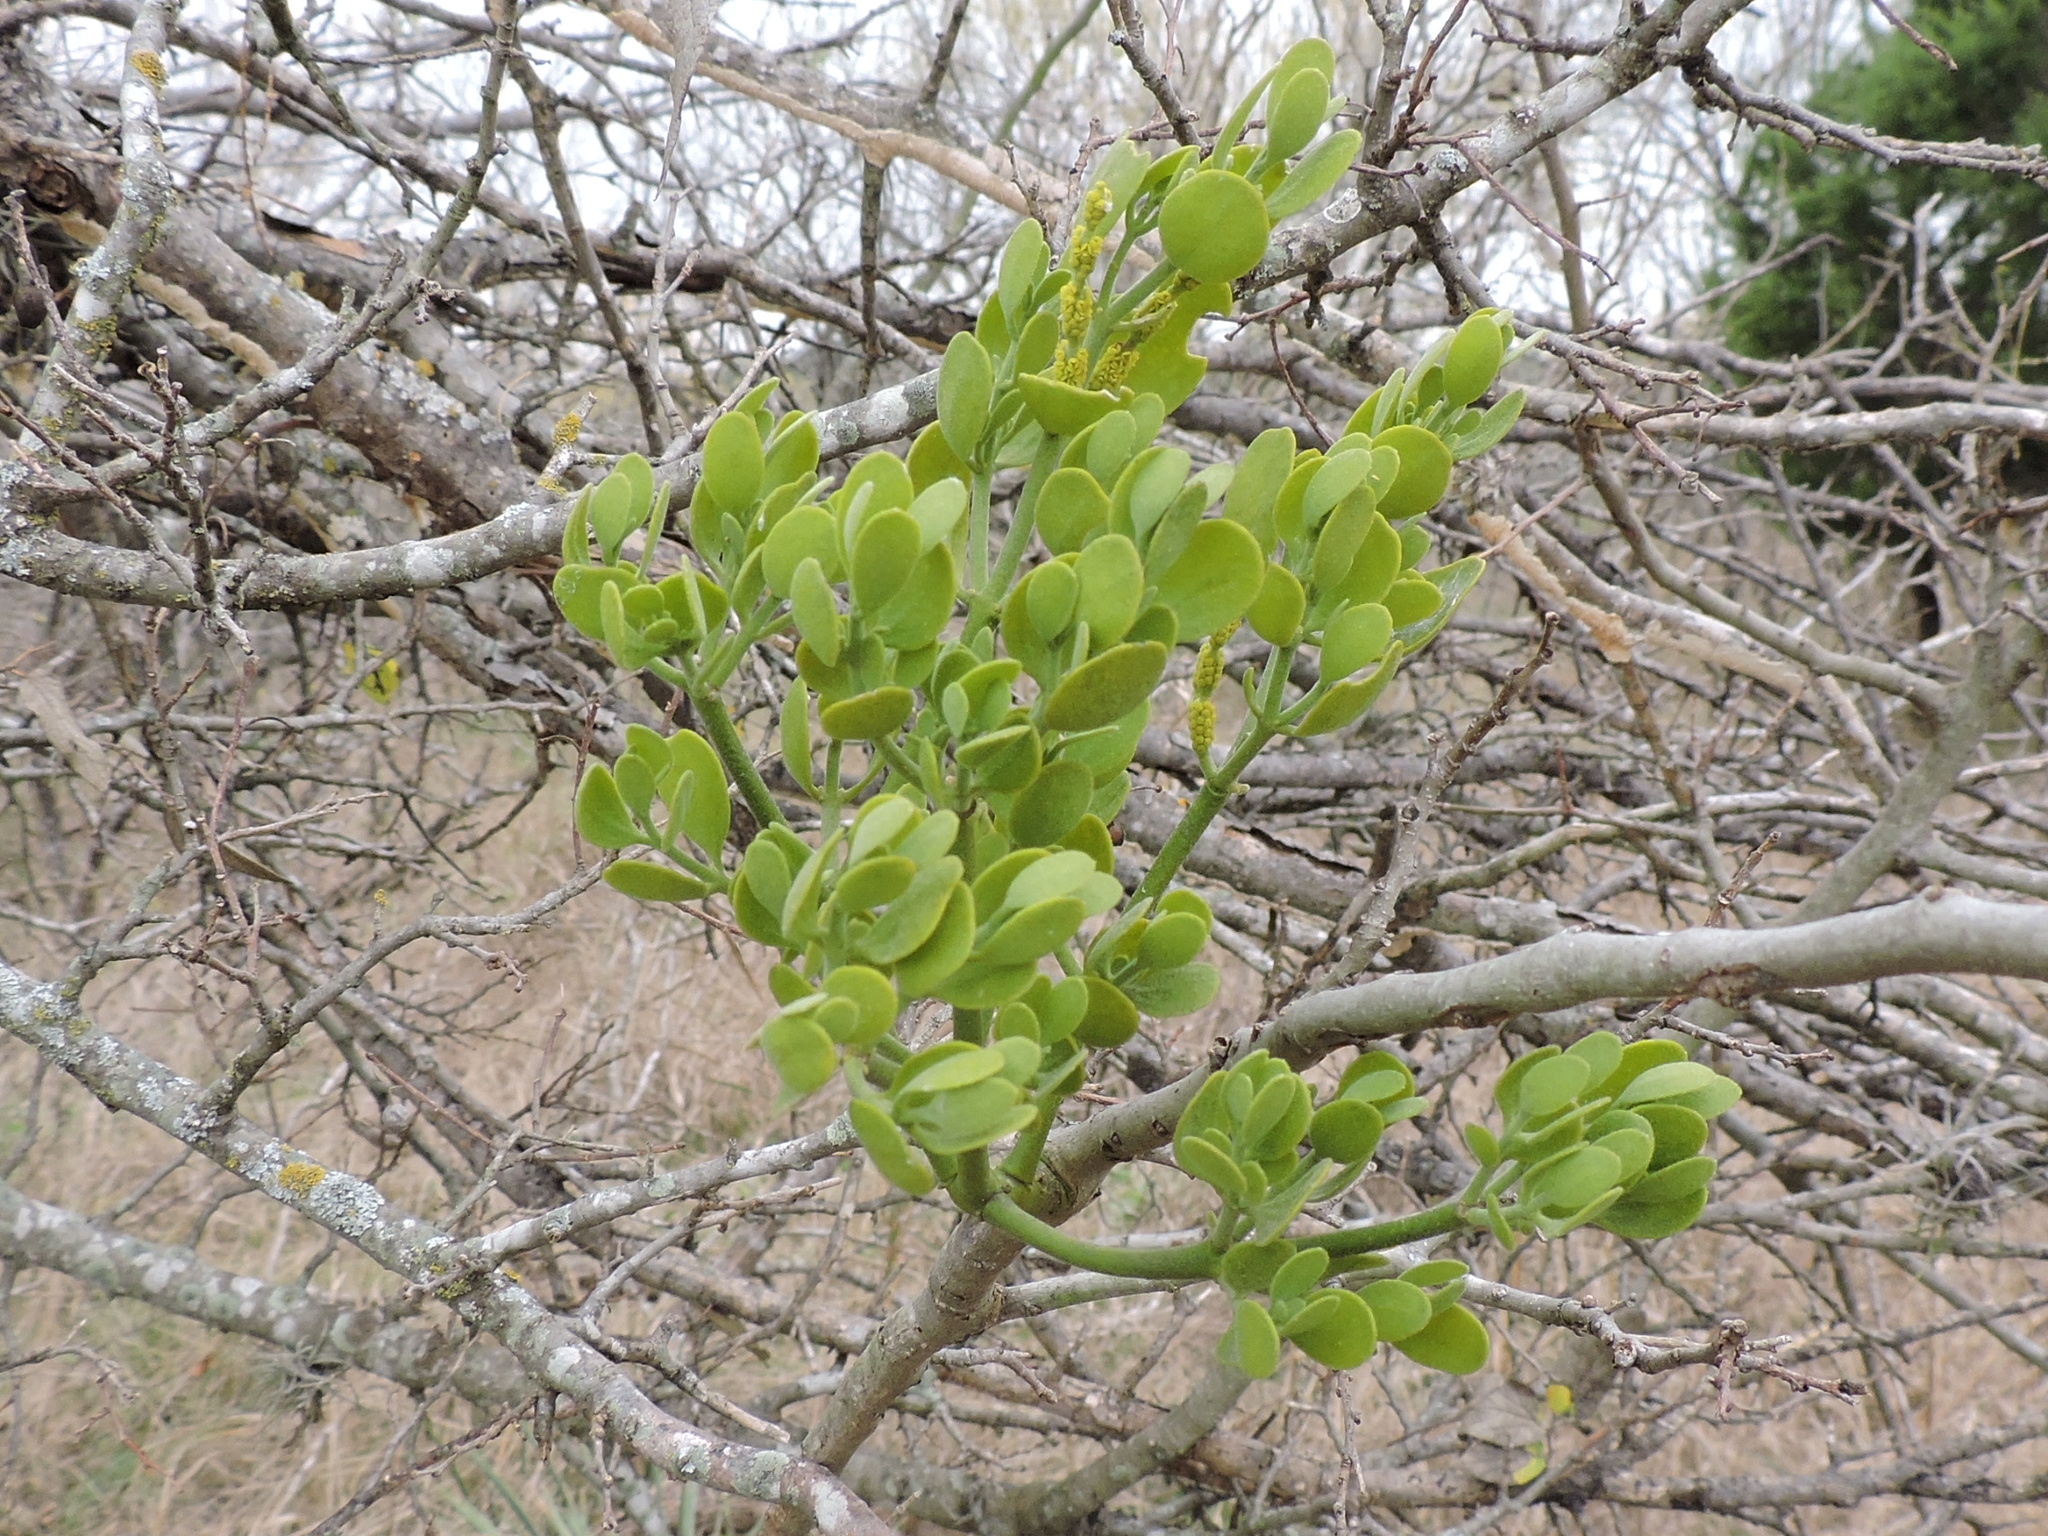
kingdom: Plantae
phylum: Tracheophyta
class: Magnoliopsida
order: Santalales
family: Viscaceae
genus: Phoradendron
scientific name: Phoradendron leucarpum
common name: Pacific mistletoe
